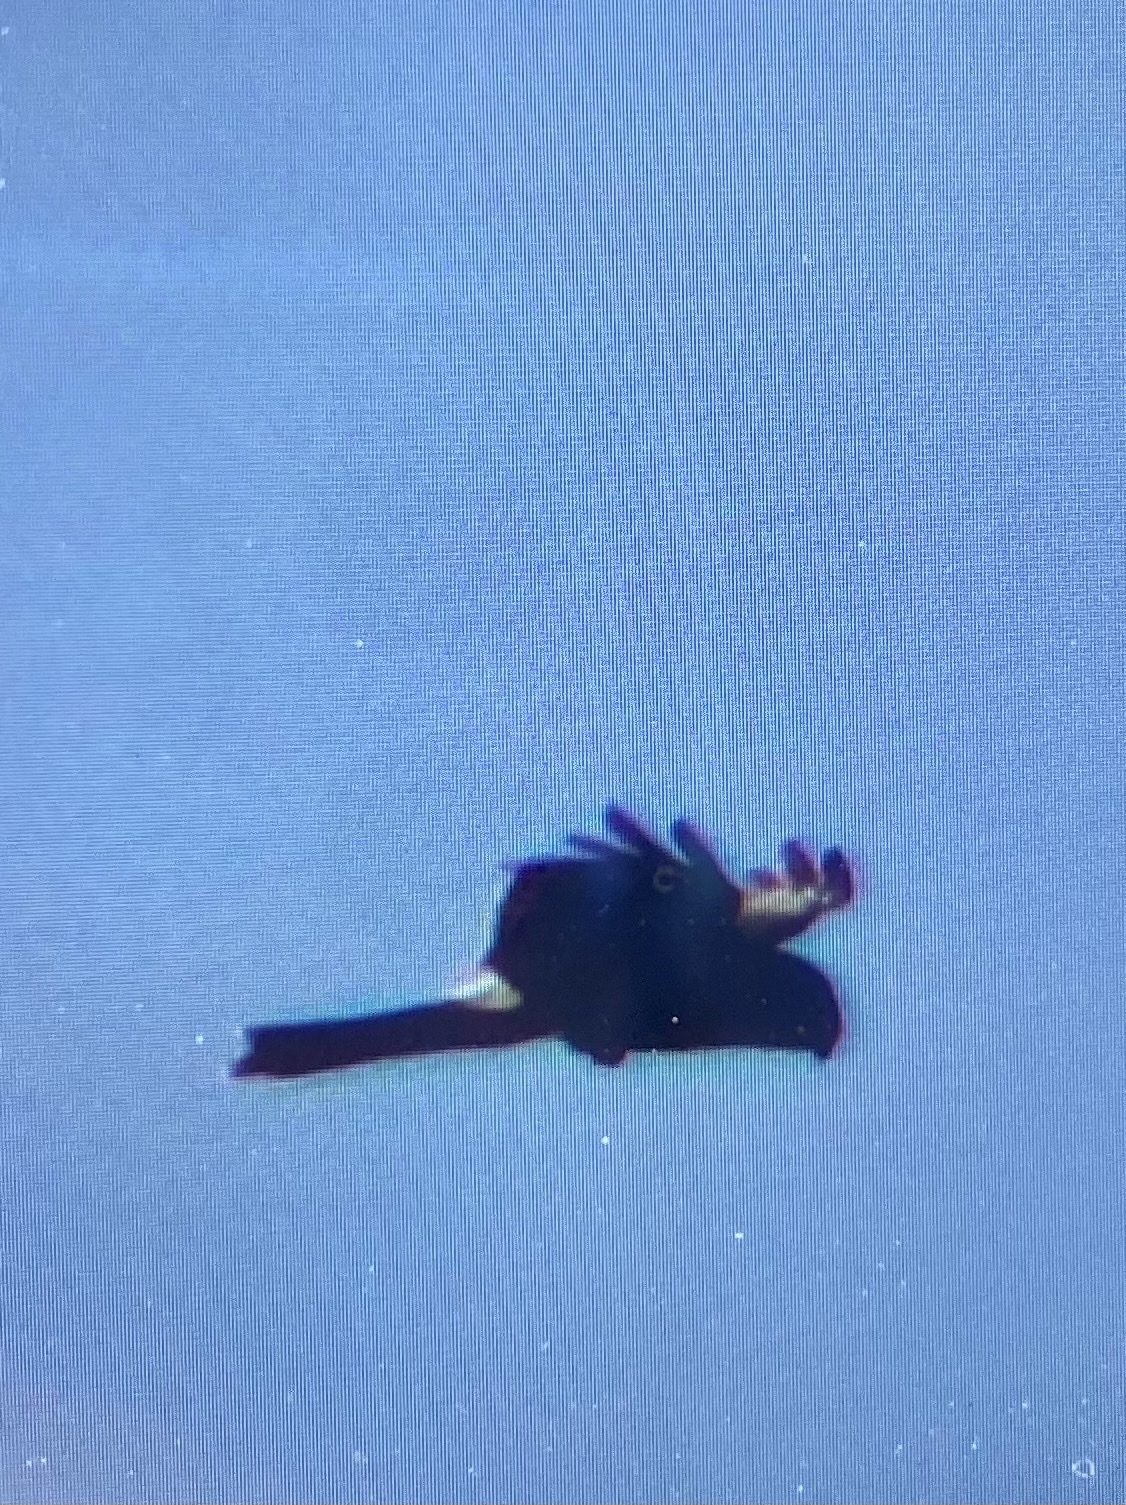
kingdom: Animalia
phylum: Chordata
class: Aves
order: Accipitriformes
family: Accipitridae
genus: Circus
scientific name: Circus cyaneus
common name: Hen harrier
